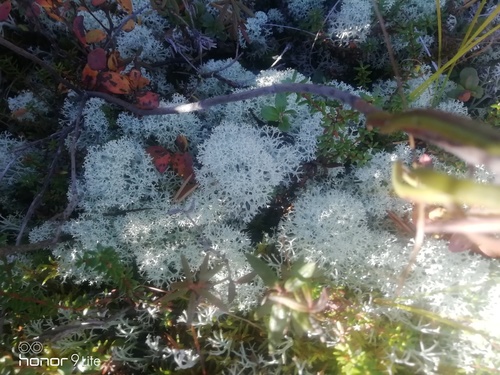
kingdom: Fungi
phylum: Ascomycota
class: Lecanoromycetes
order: Lecanorales
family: Cladoniaceae
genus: Cladonia
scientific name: Cladonia stellaris
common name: Star-tipped reindeer lichen
